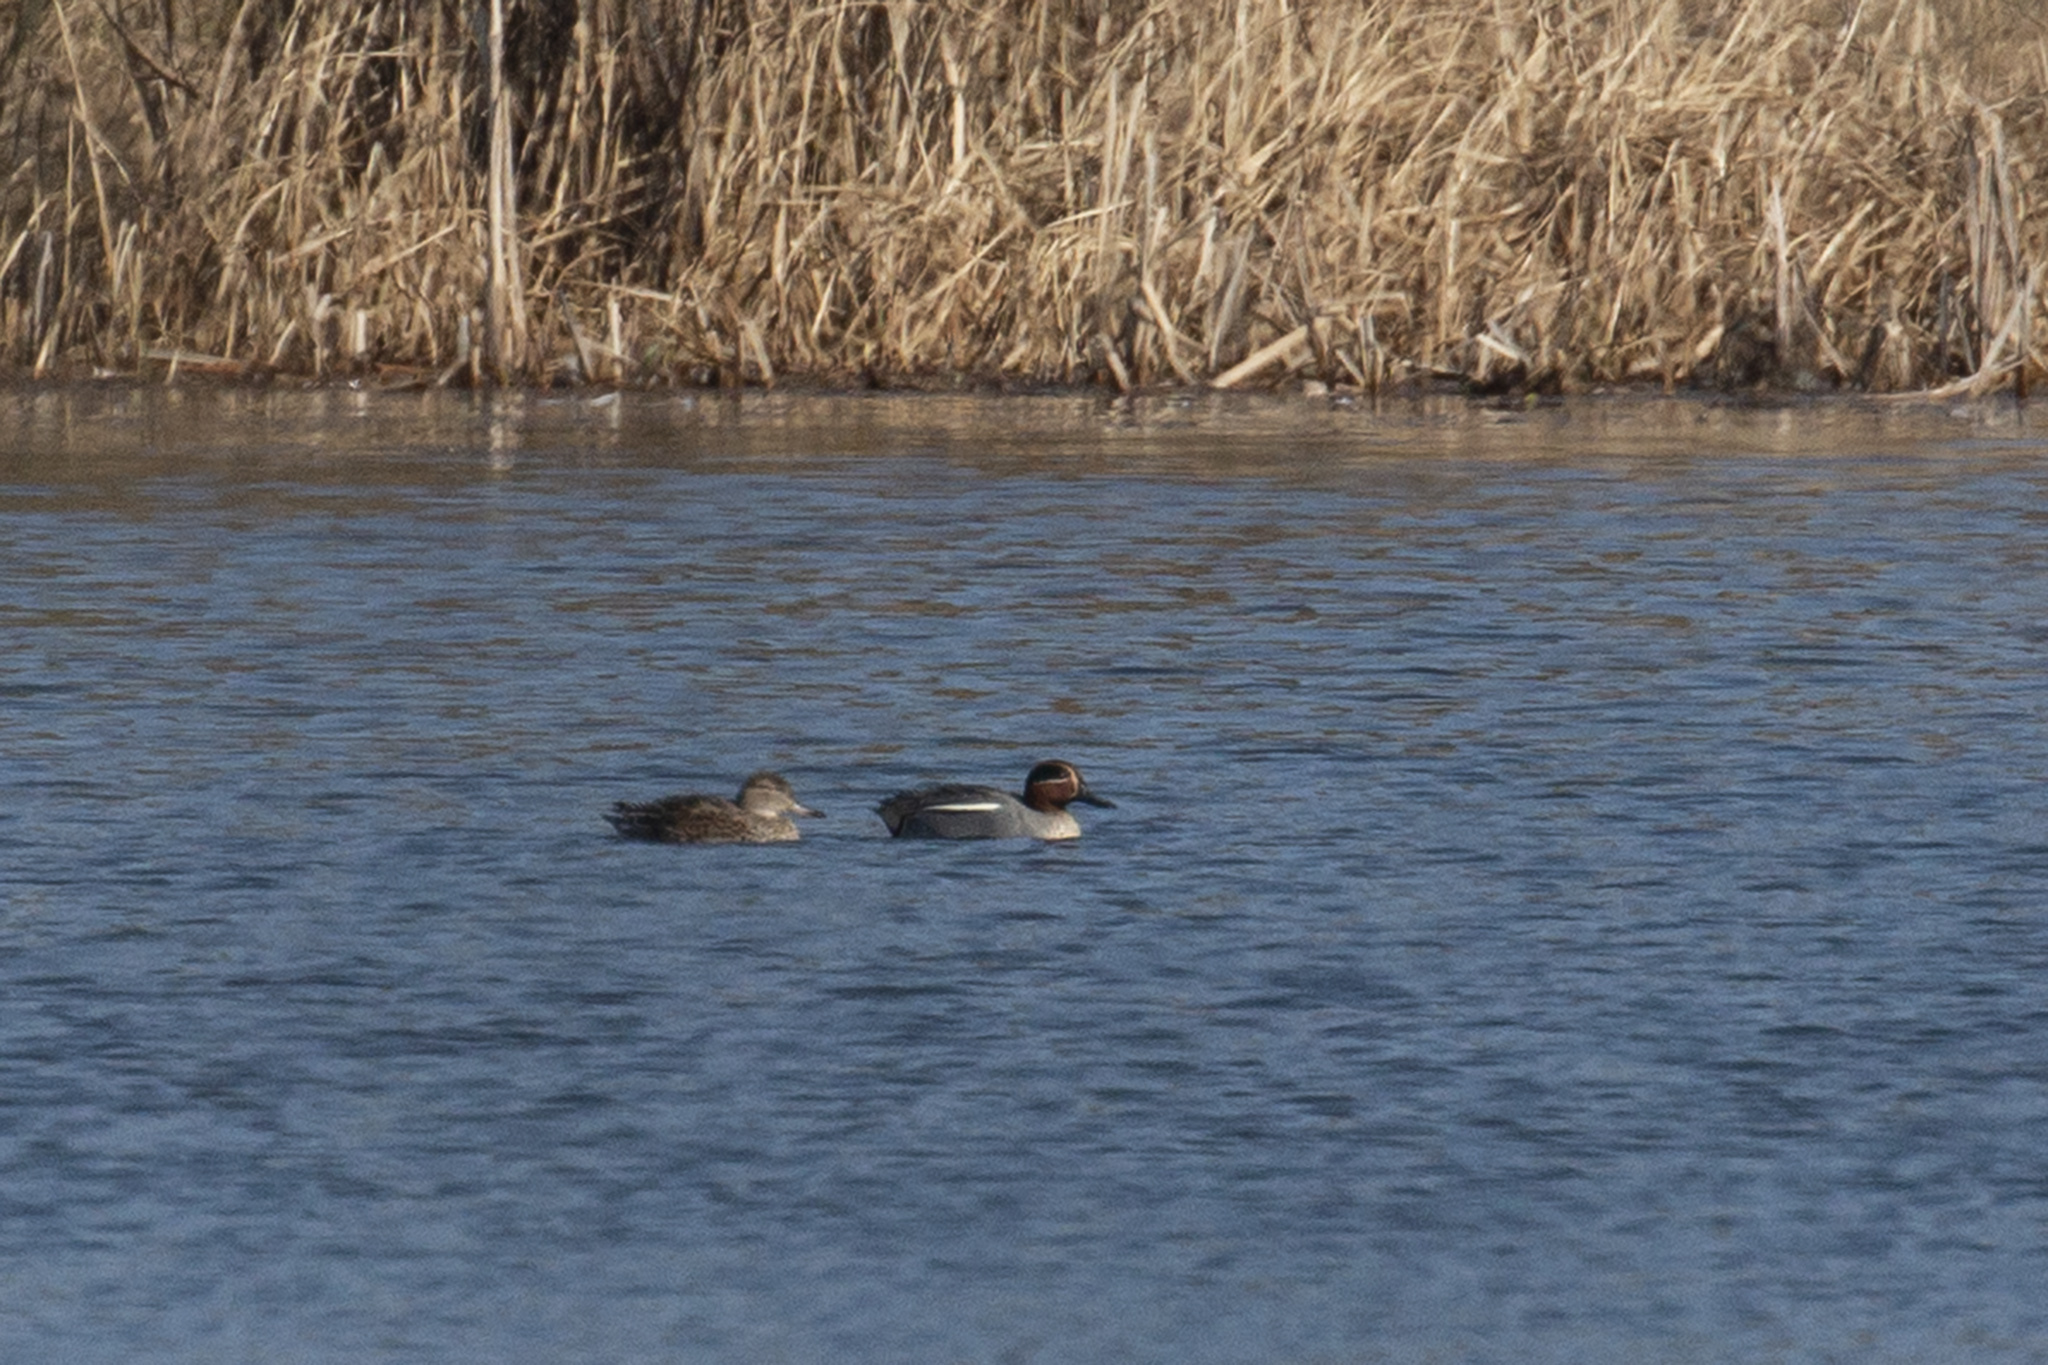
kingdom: Animalia
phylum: Chordata
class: Aves
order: Anseriformes
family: Anatidae
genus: Anas
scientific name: Anas crecca
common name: Eurasian teal
